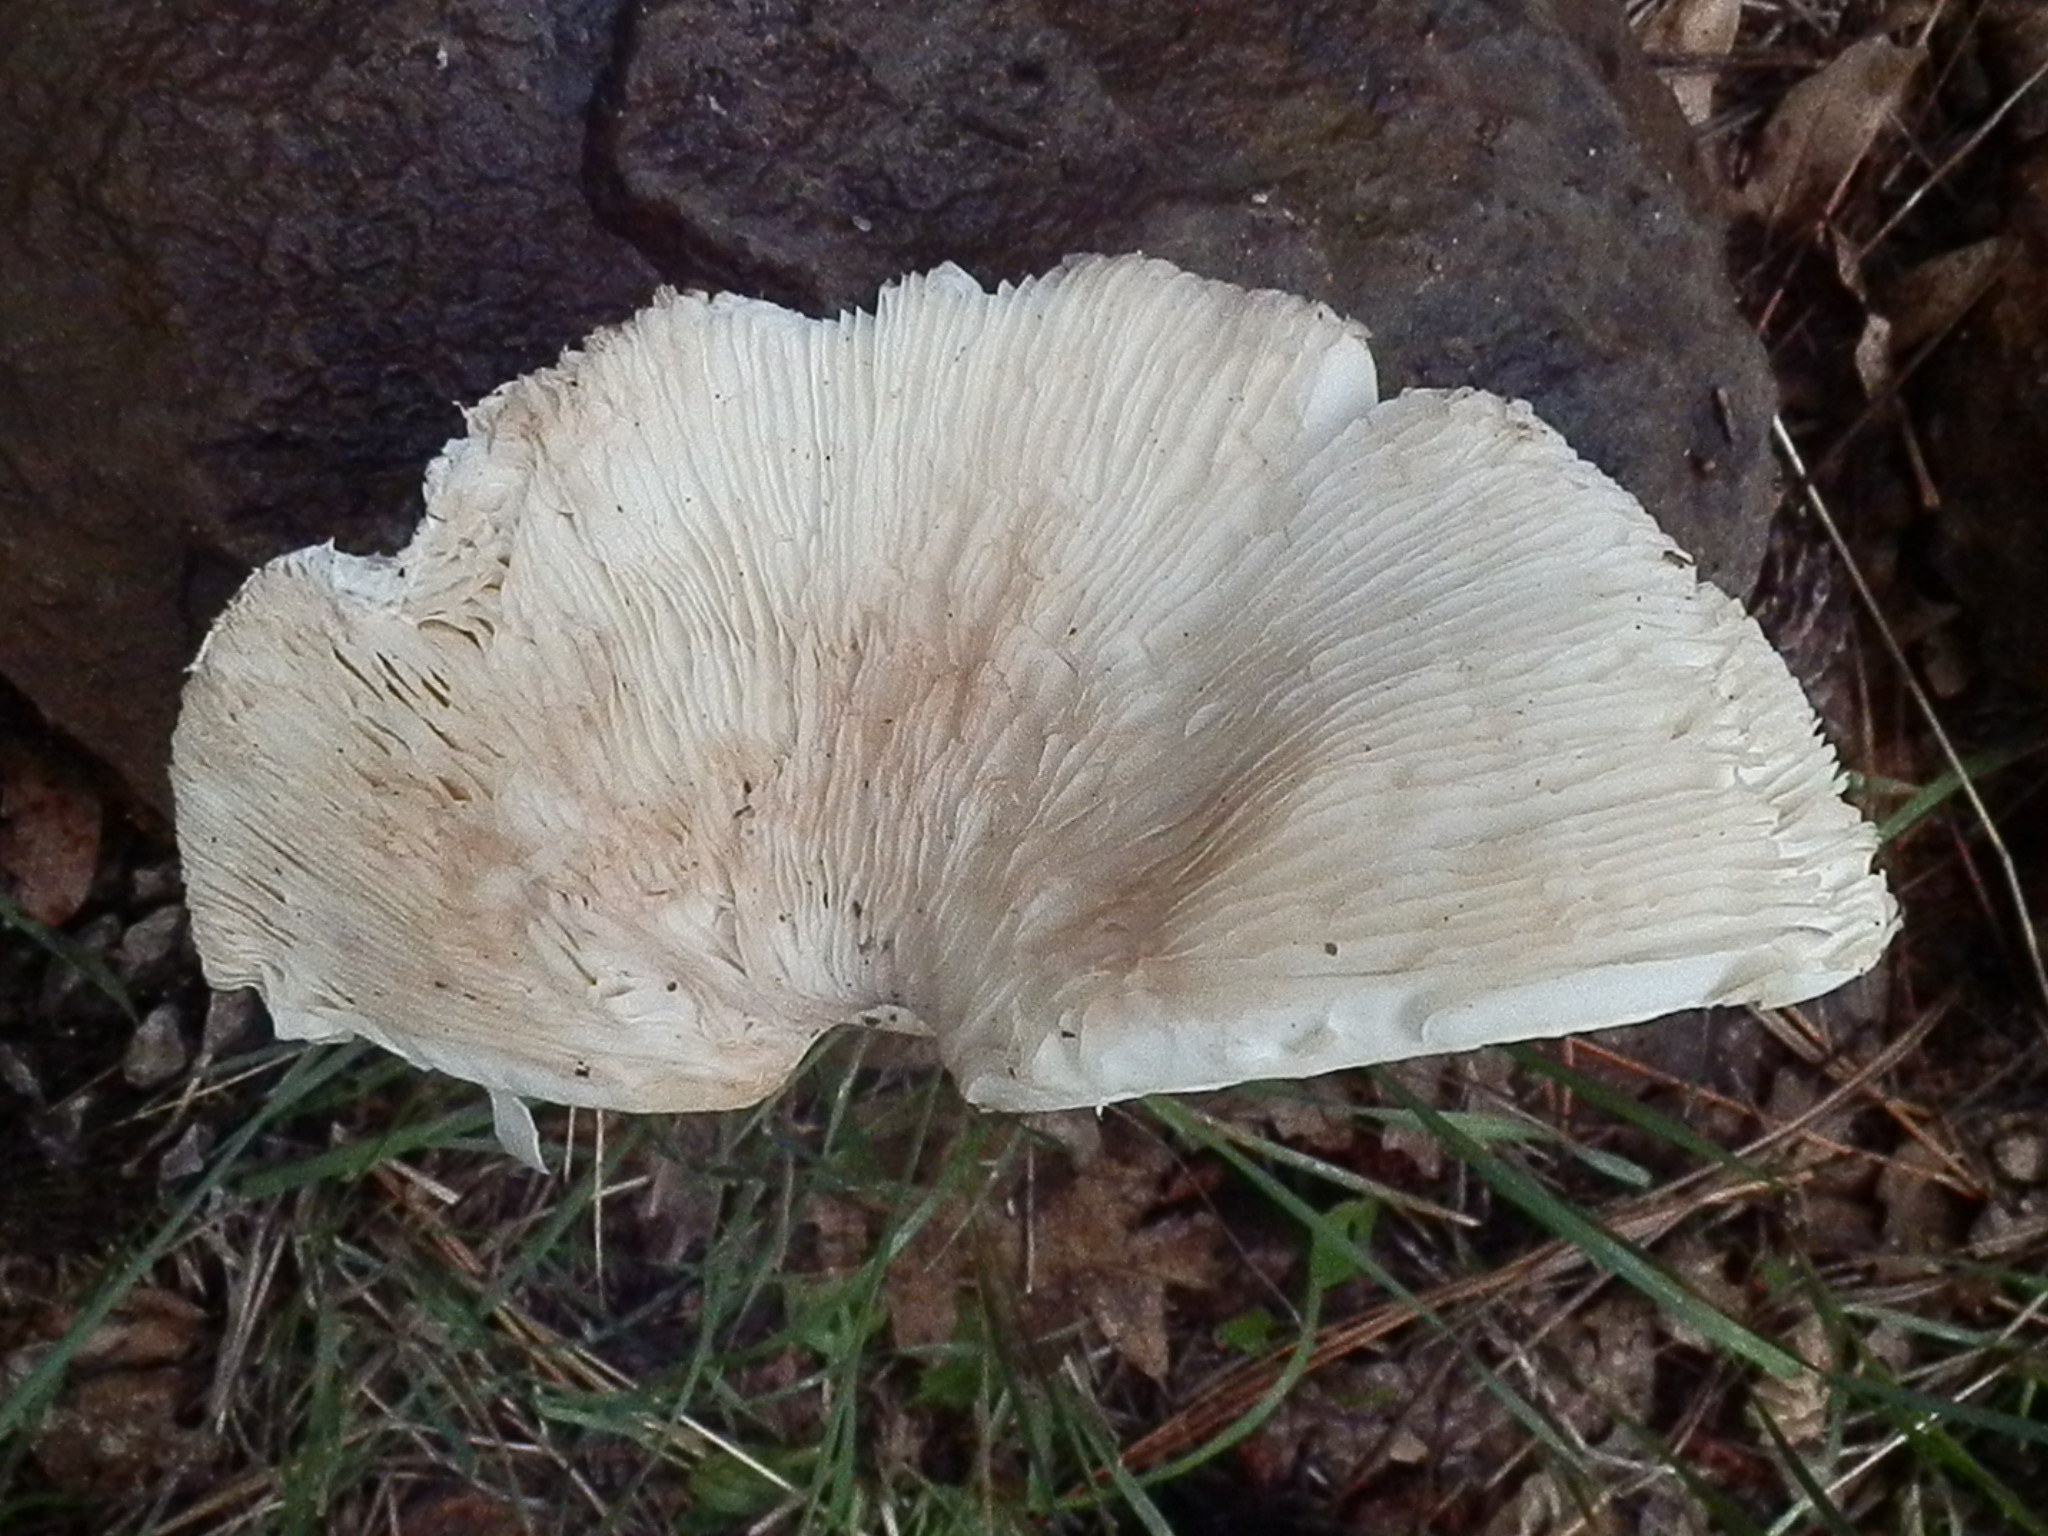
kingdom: Fungi
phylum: Basidiomycota
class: Agaricomycetes
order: Agaricales
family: Agaricaceae
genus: Leucoagaricus
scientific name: Leucoagaricus leucothites
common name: White dapperling
